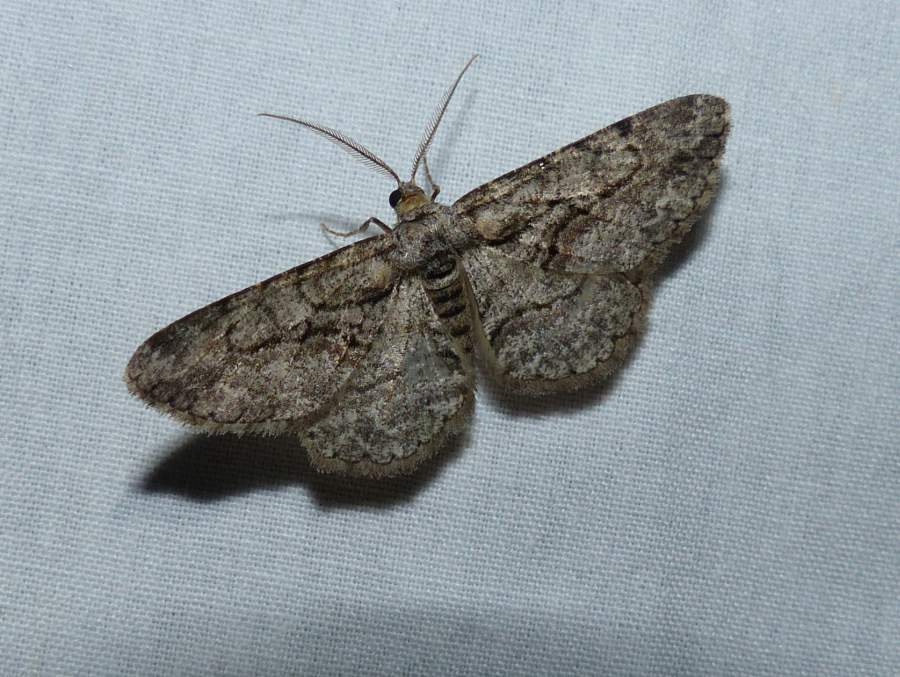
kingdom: Animalia
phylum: Arthropoda
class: Insecta
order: Lepidoptera
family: Geometridae
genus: Anavitrinella
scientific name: Anavitrinella pampinaria
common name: Common gray
